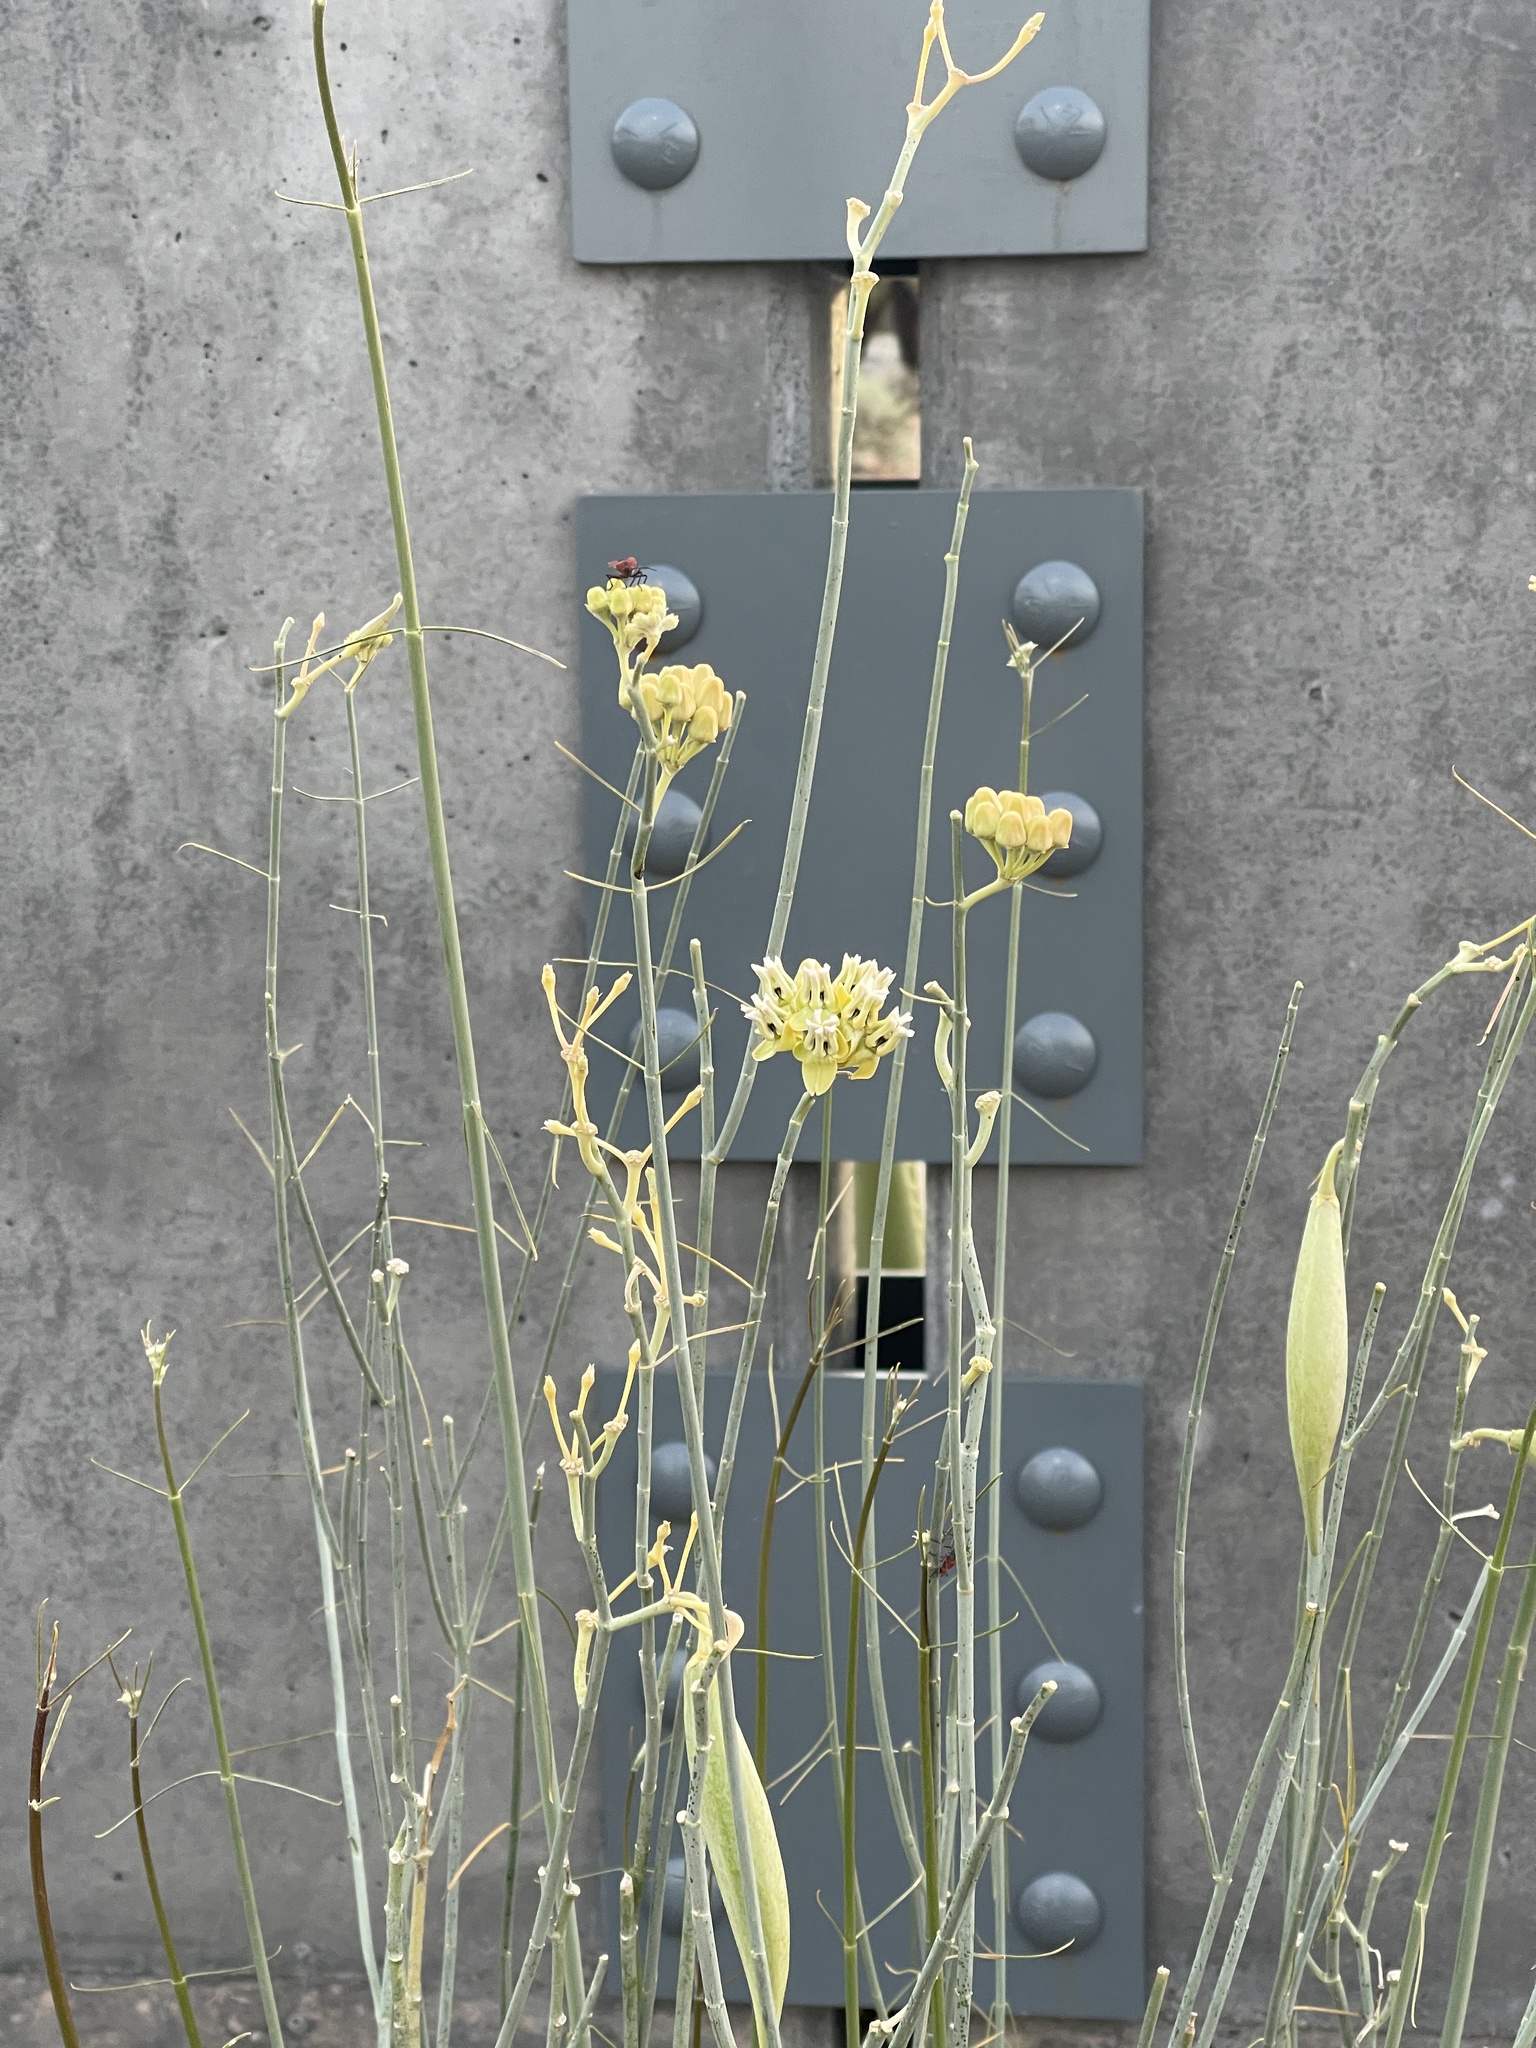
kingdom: Plantae
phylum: Tracheophyta
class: Magnoliopsida
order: Gentianales
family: Apocynaceae
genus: Asclepias
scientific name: Asclepias subulata
